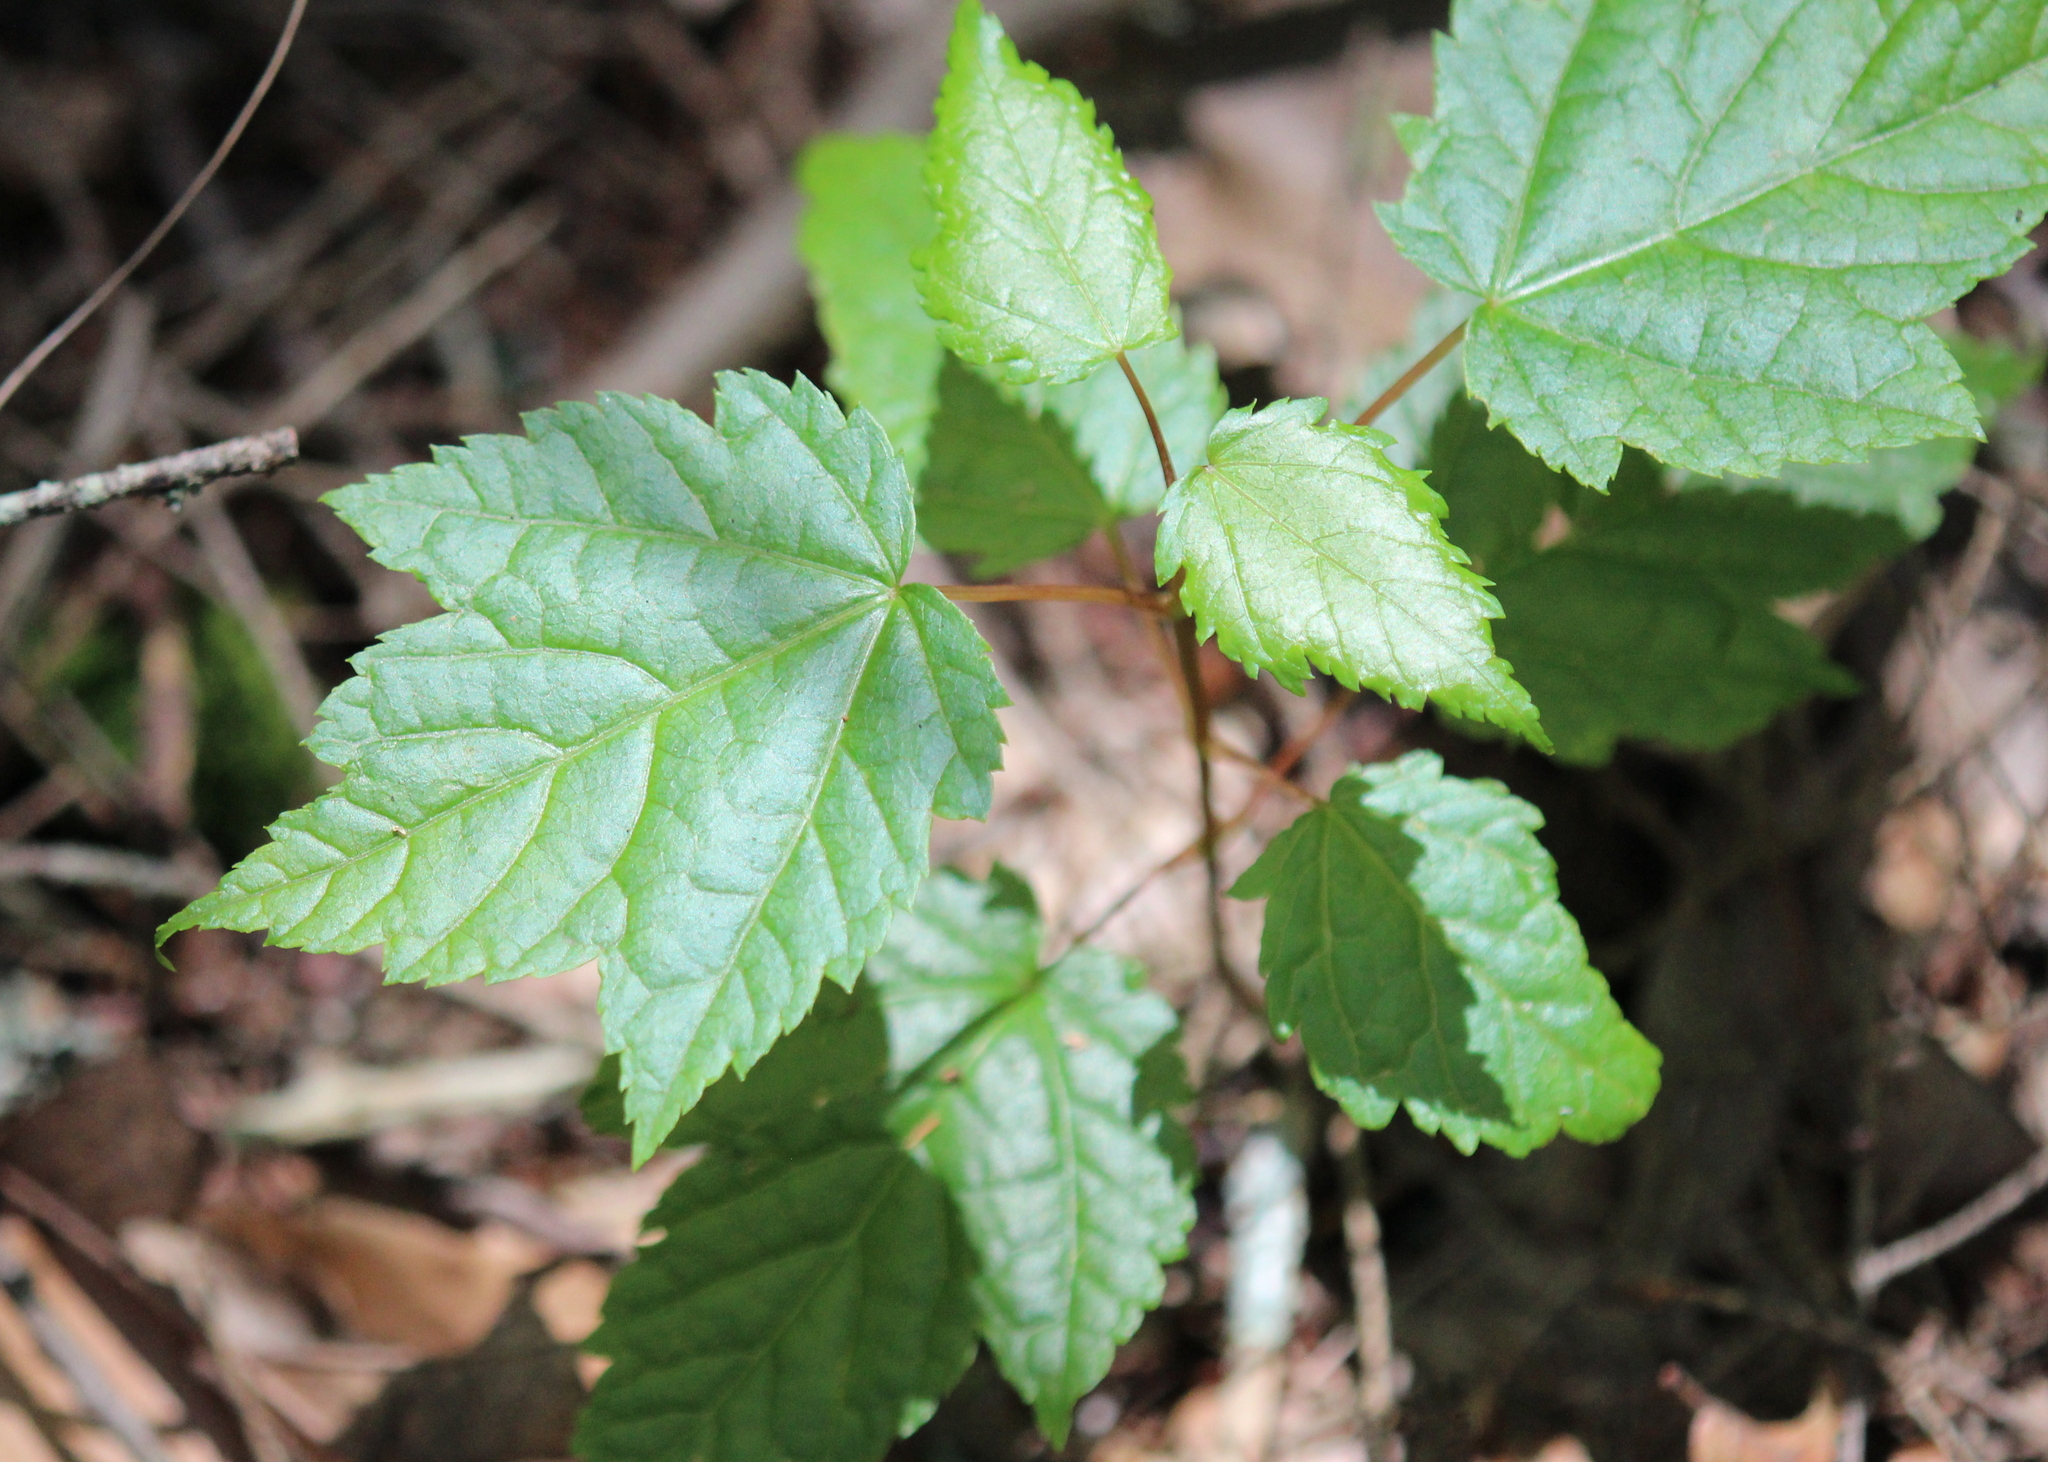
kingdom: Plantae
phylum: Tracheophyta
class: Magnoliopsida
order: Sapindales
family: Sapindaceae
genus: Acer
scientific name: Acer rubrum
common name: Red maple
